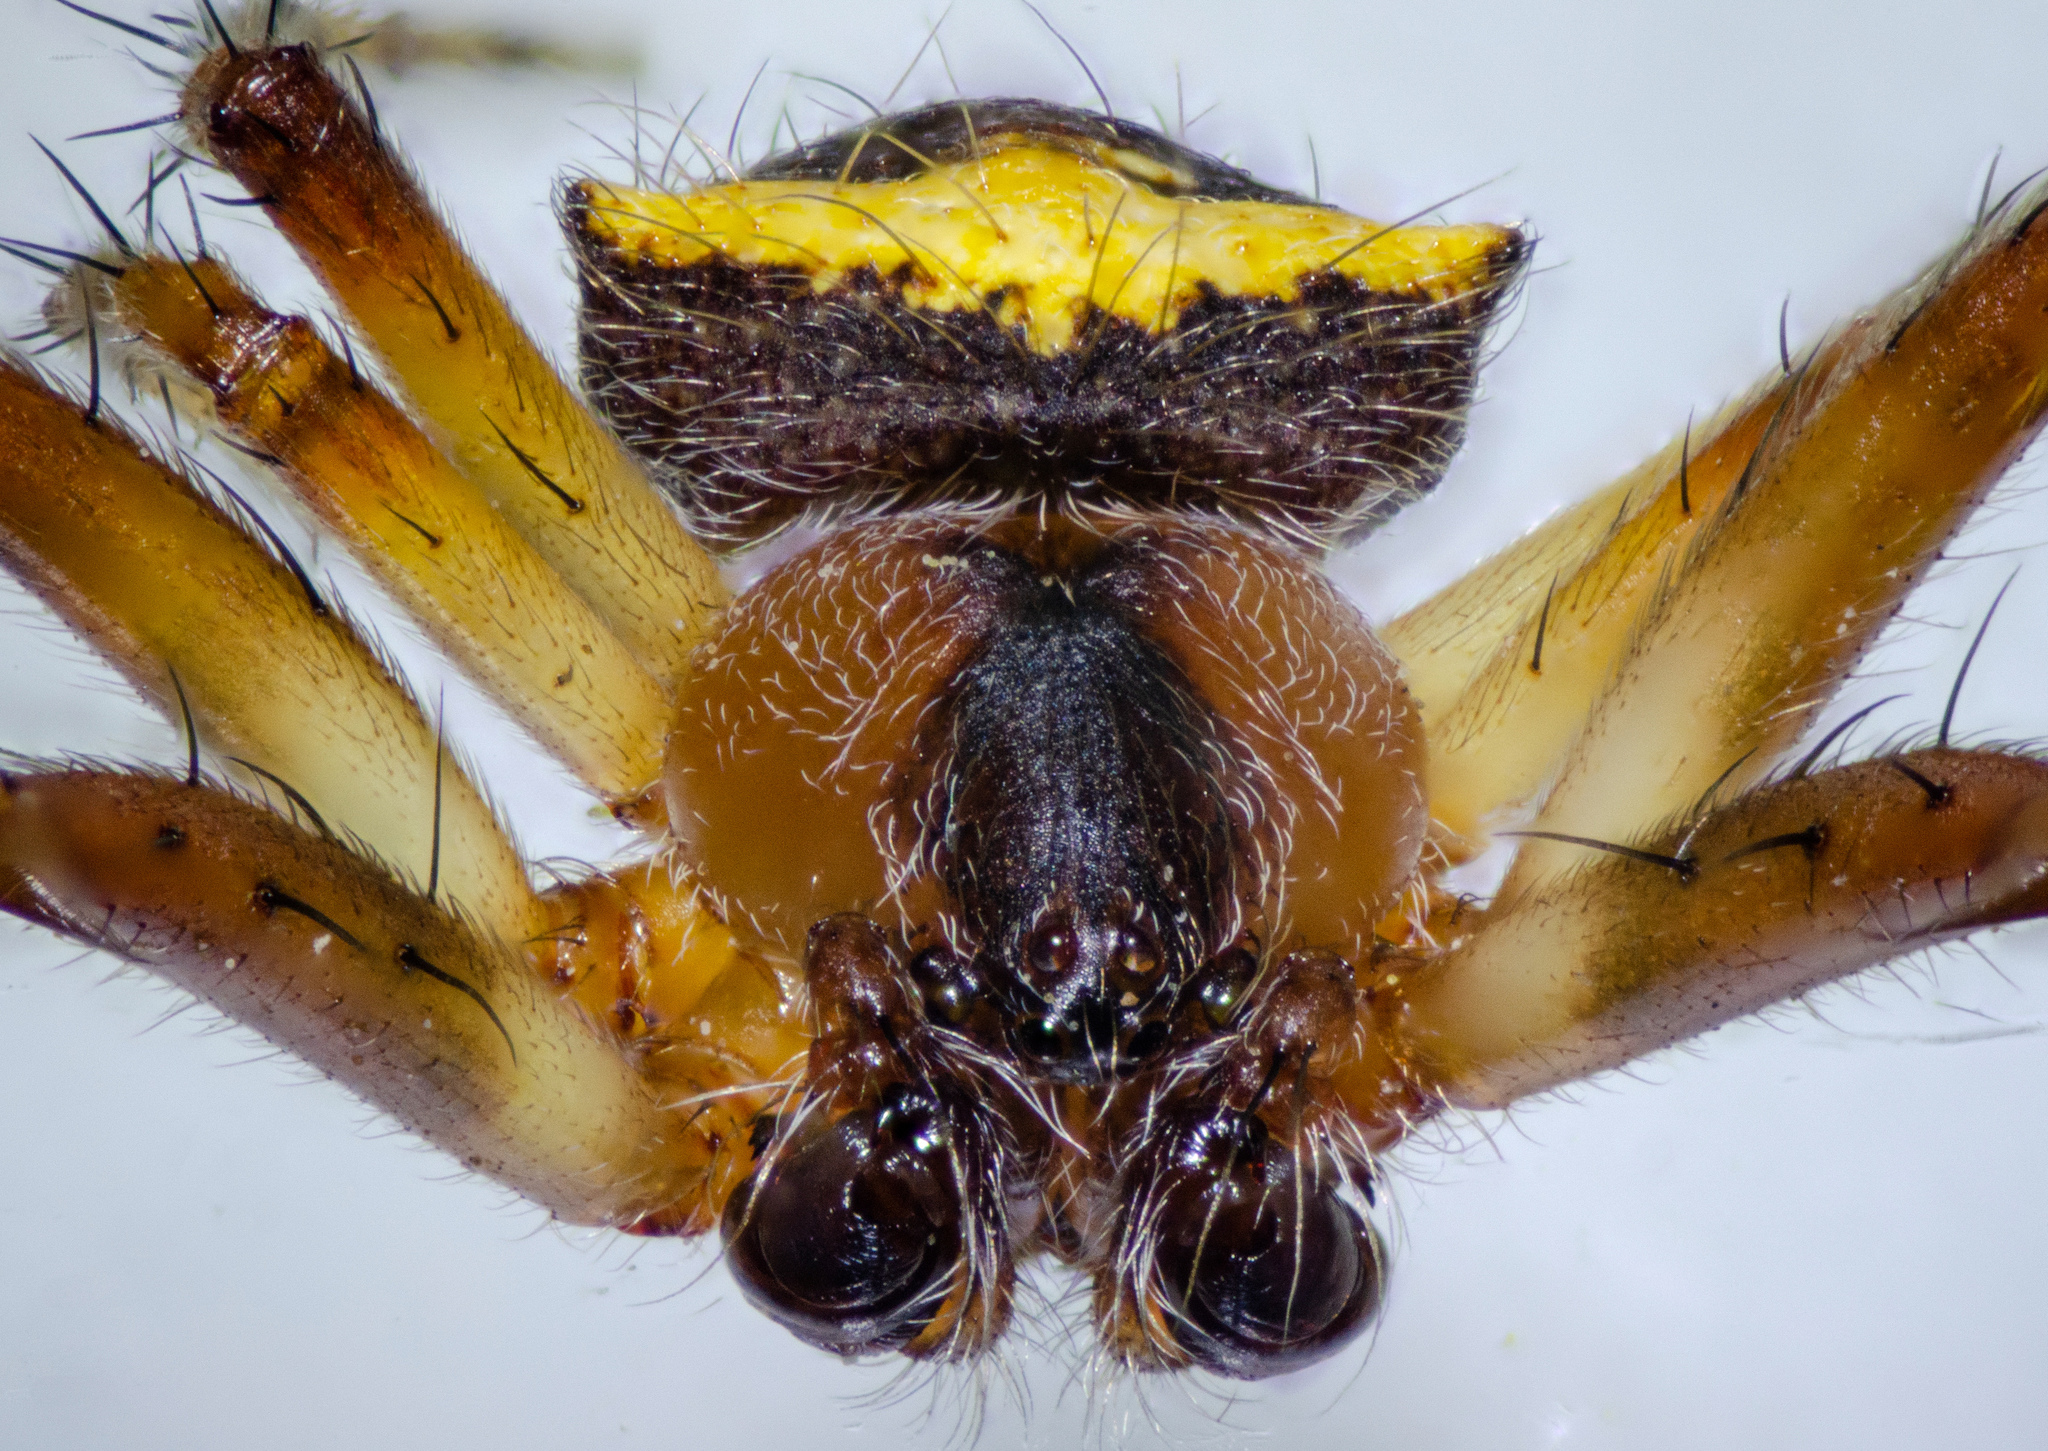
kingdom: Animalia
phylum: Arthropoda
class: Arachnida
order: Araneae
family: Araneidae
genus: Araneus
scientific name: Araneus bispinosus
